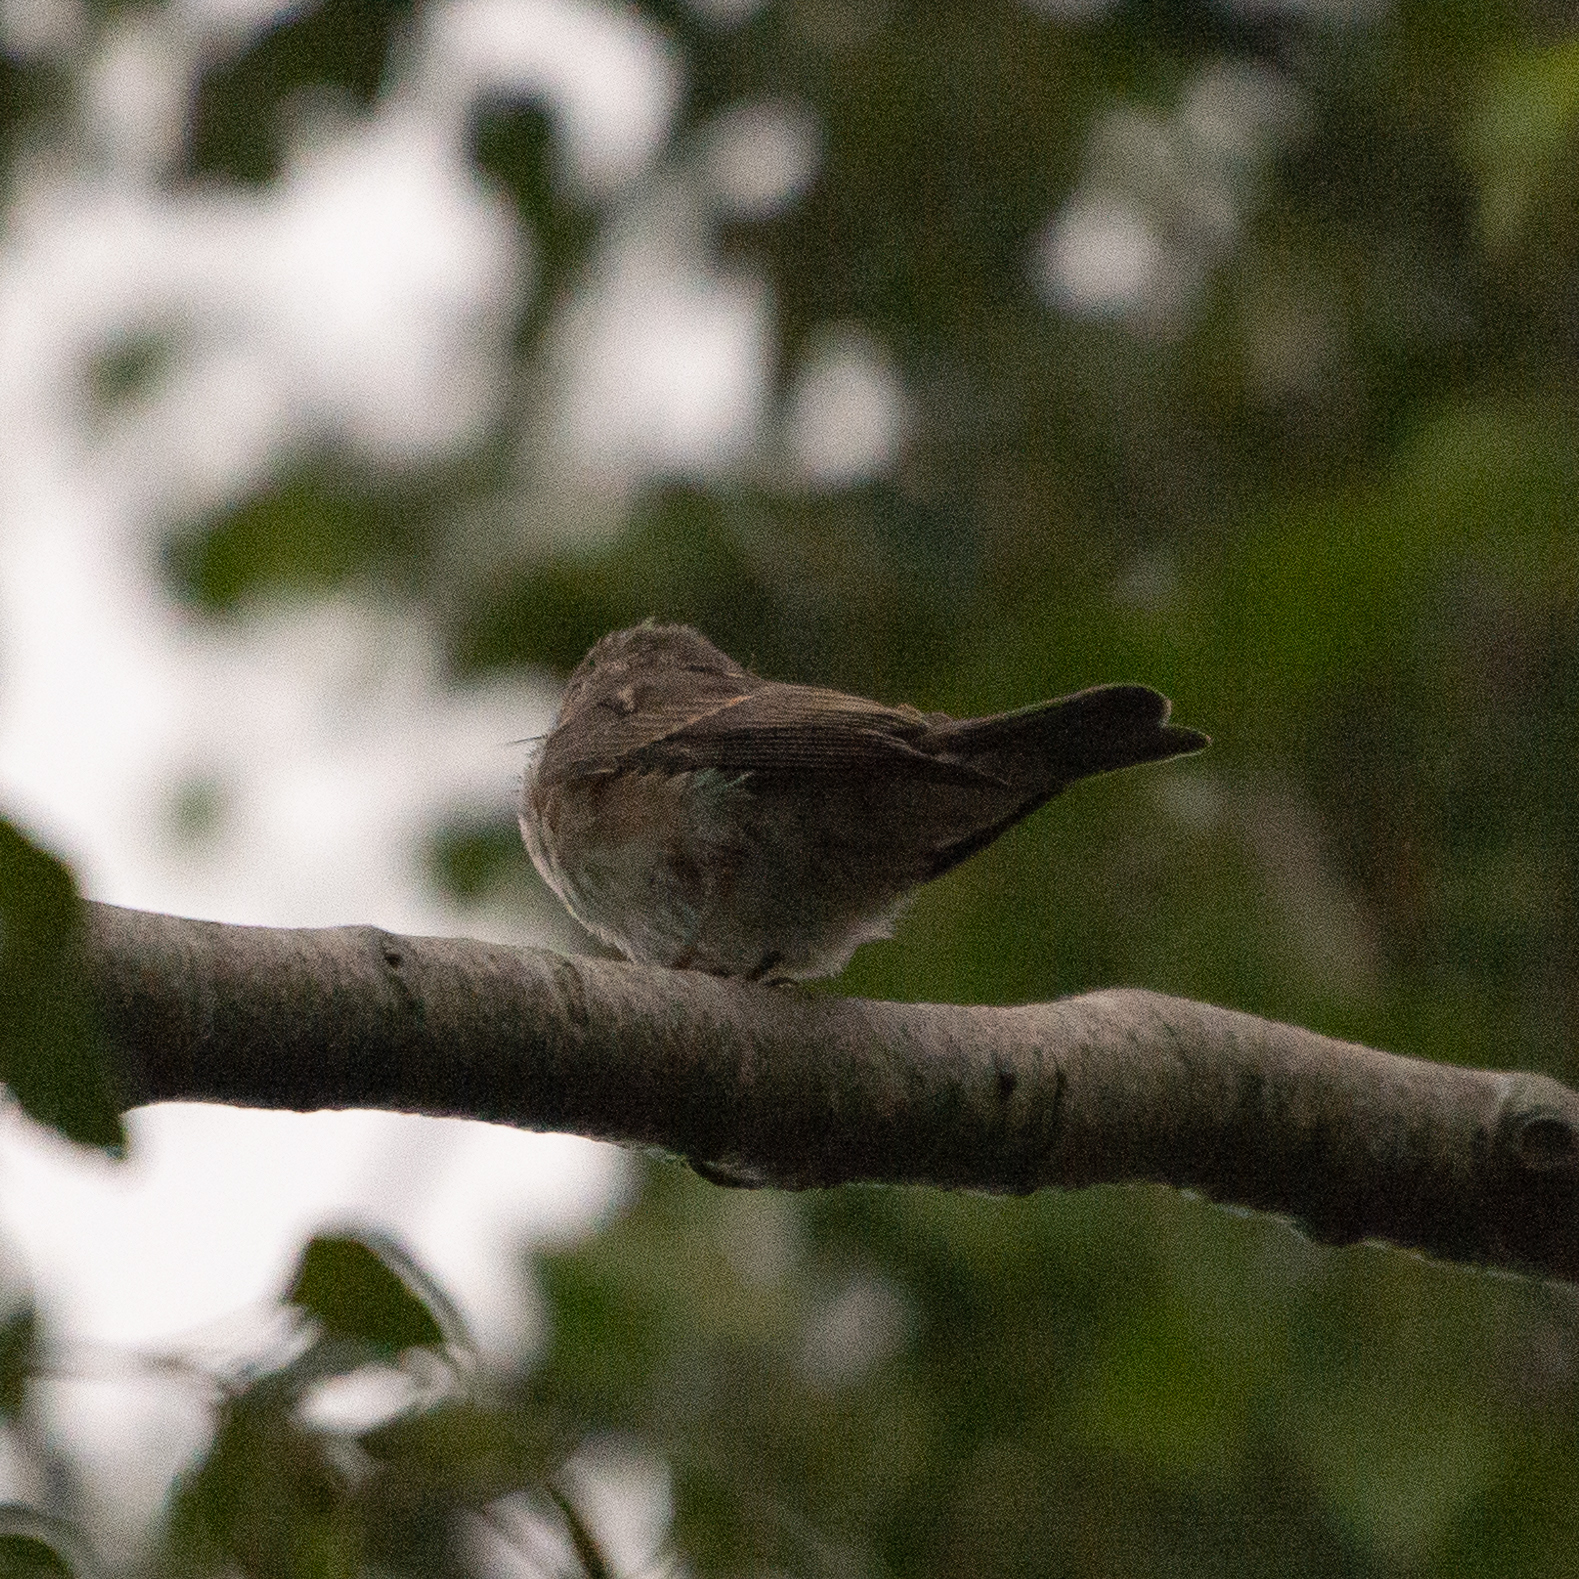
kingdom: Animalia
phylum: Chordata
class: Aves
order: Passeriformes
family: Muscicapidae
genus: Muscicapa
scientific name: Muscicapa striata
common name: Spotted flycatcher
